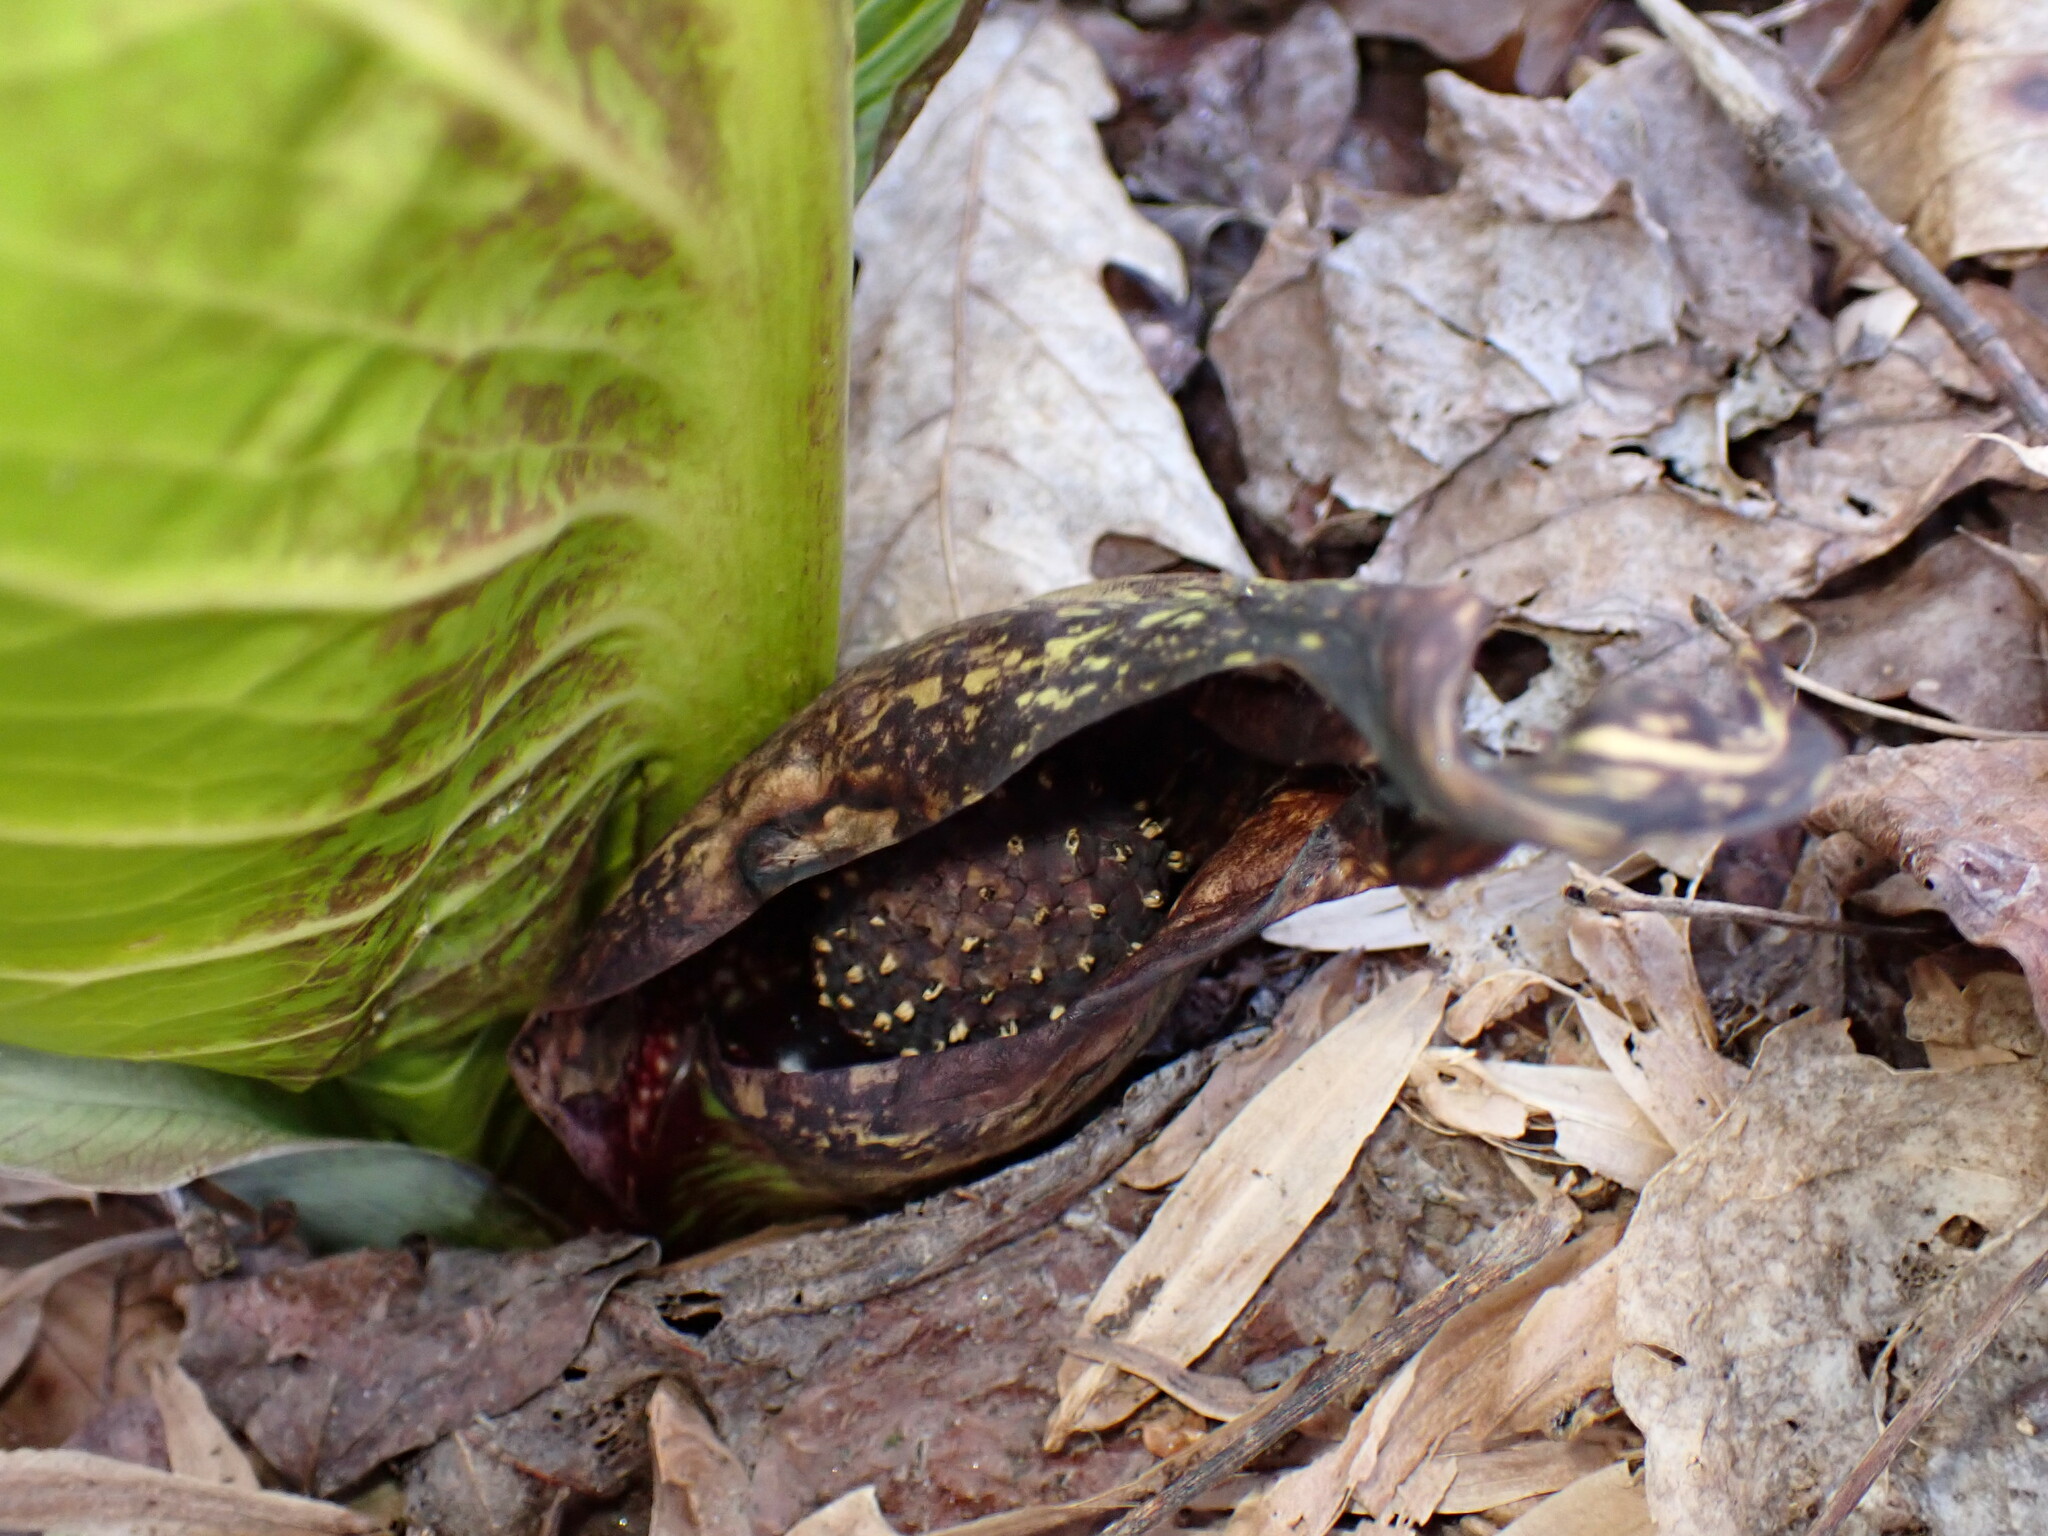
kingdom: Plantae
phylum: Tracheophyta
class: Liliopsida
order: Alismatales
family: Araceae
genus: Symplocarpus
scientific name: Symplocarpus foetidus
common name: Eastern skunk cabbage
